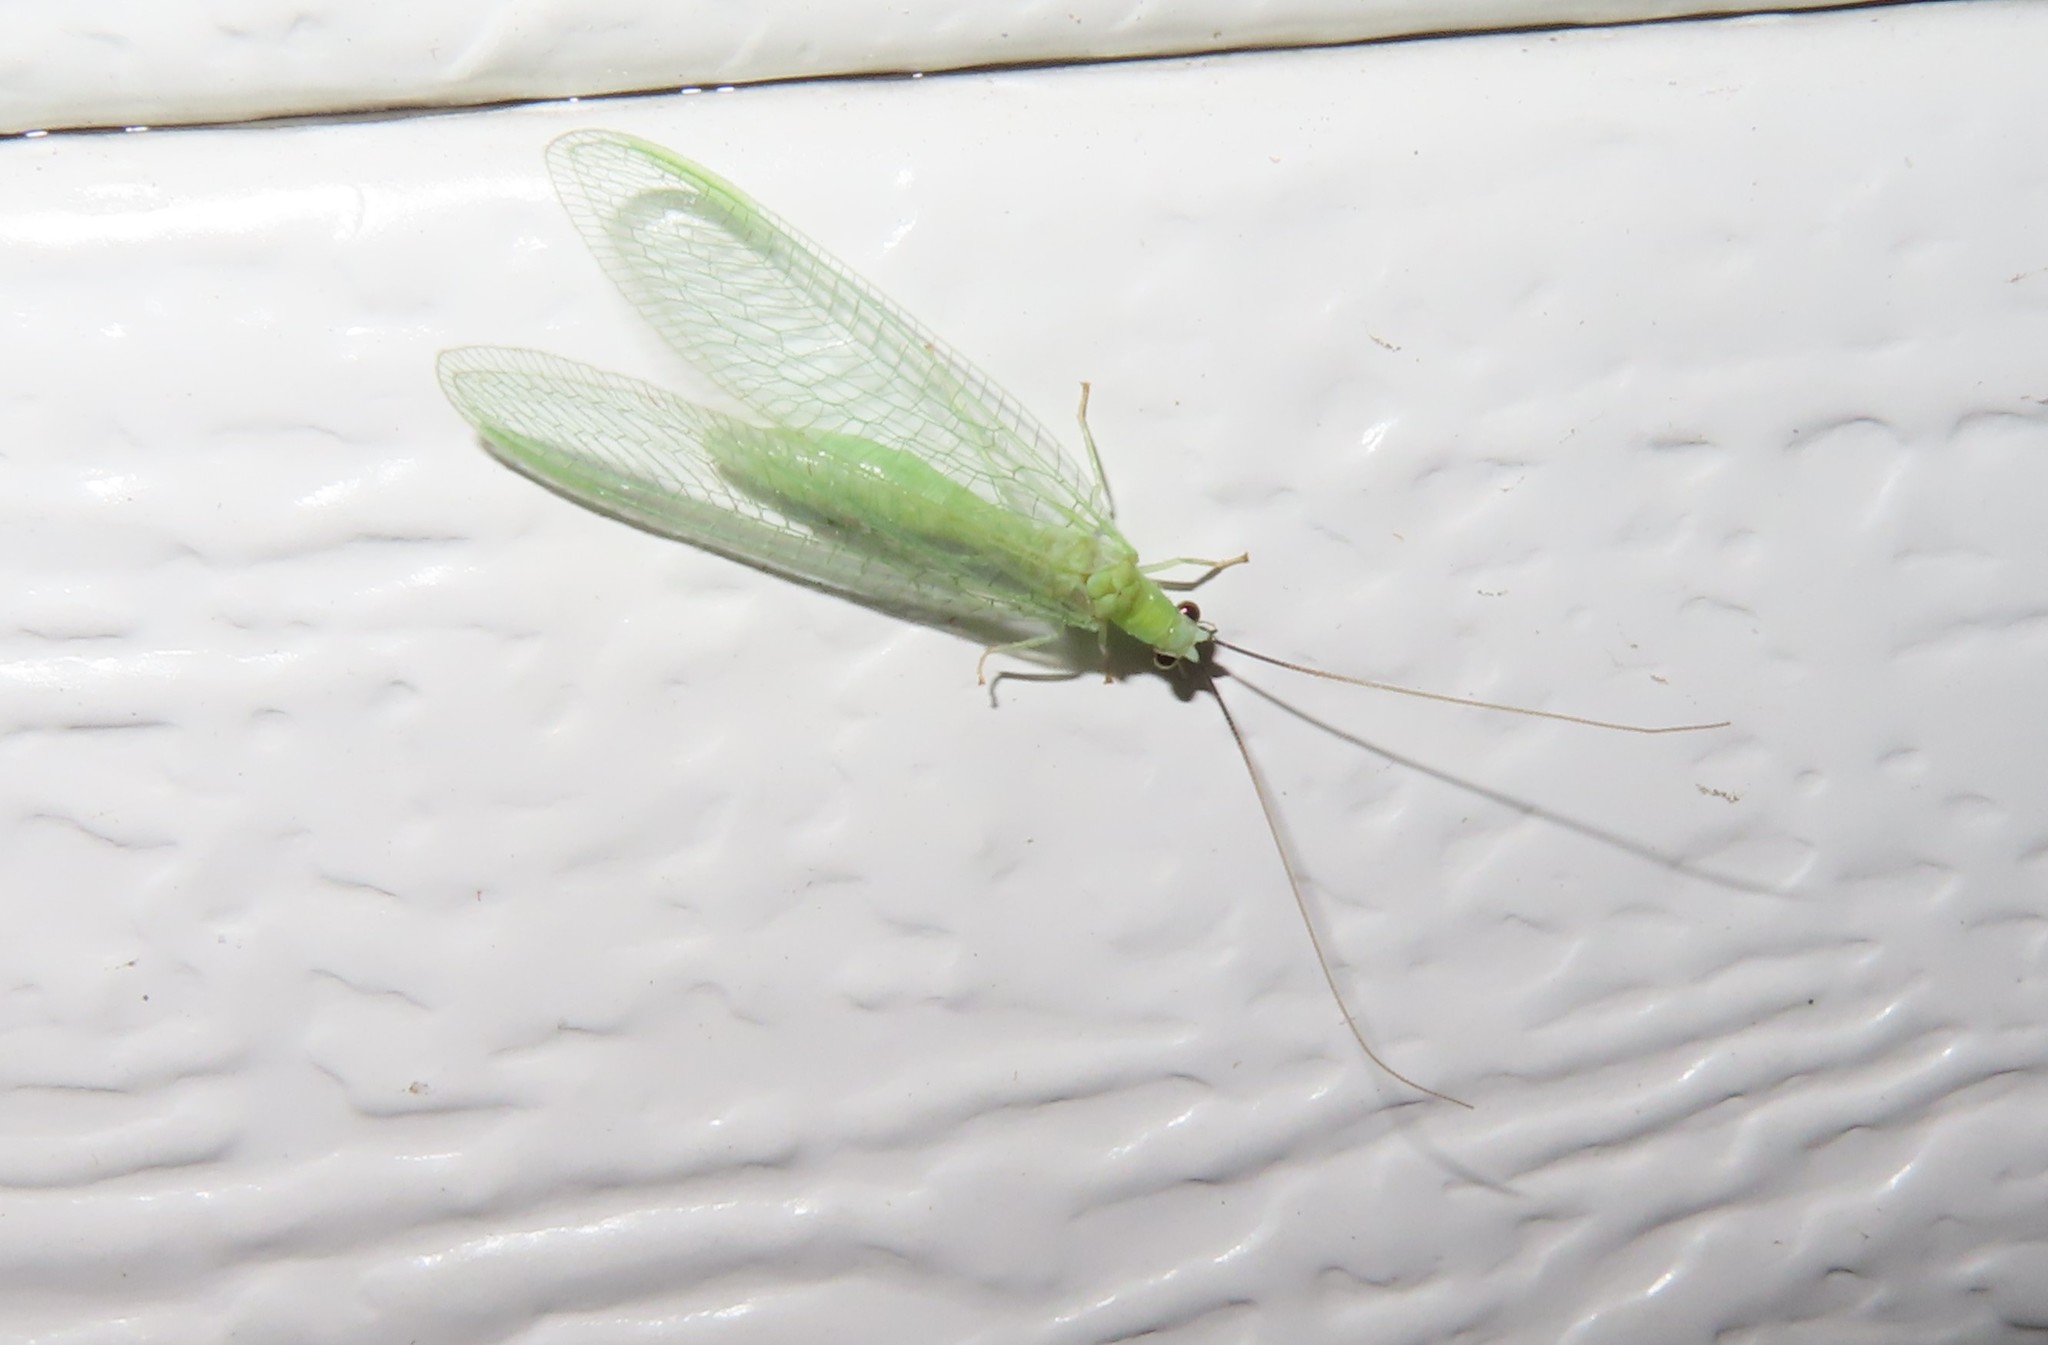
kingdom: Animalia
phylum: Arthropoda
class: Insecta
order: Neuroptera
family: Chrysopidae
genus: Chrysopa
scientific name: Chrysopa nigricornis
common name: Black-horned green lacewing
